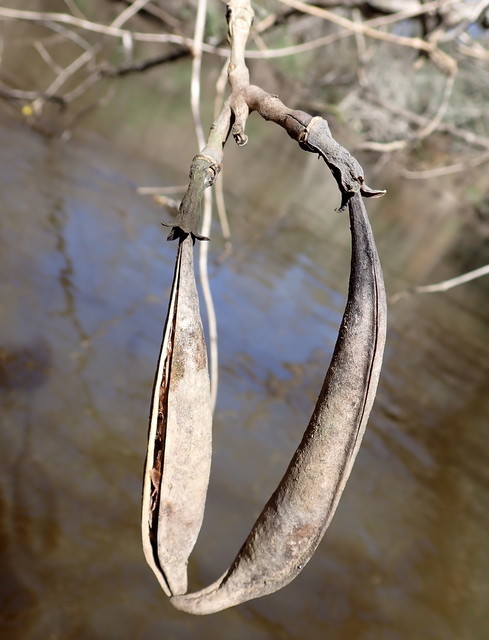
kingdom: Plantae
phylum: Tracheophyta
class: Magnoliopsida
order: Lamiales
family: Bignoniaceae
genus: Campsis
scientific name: Campsis radicans
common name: Trumpet-creeper
